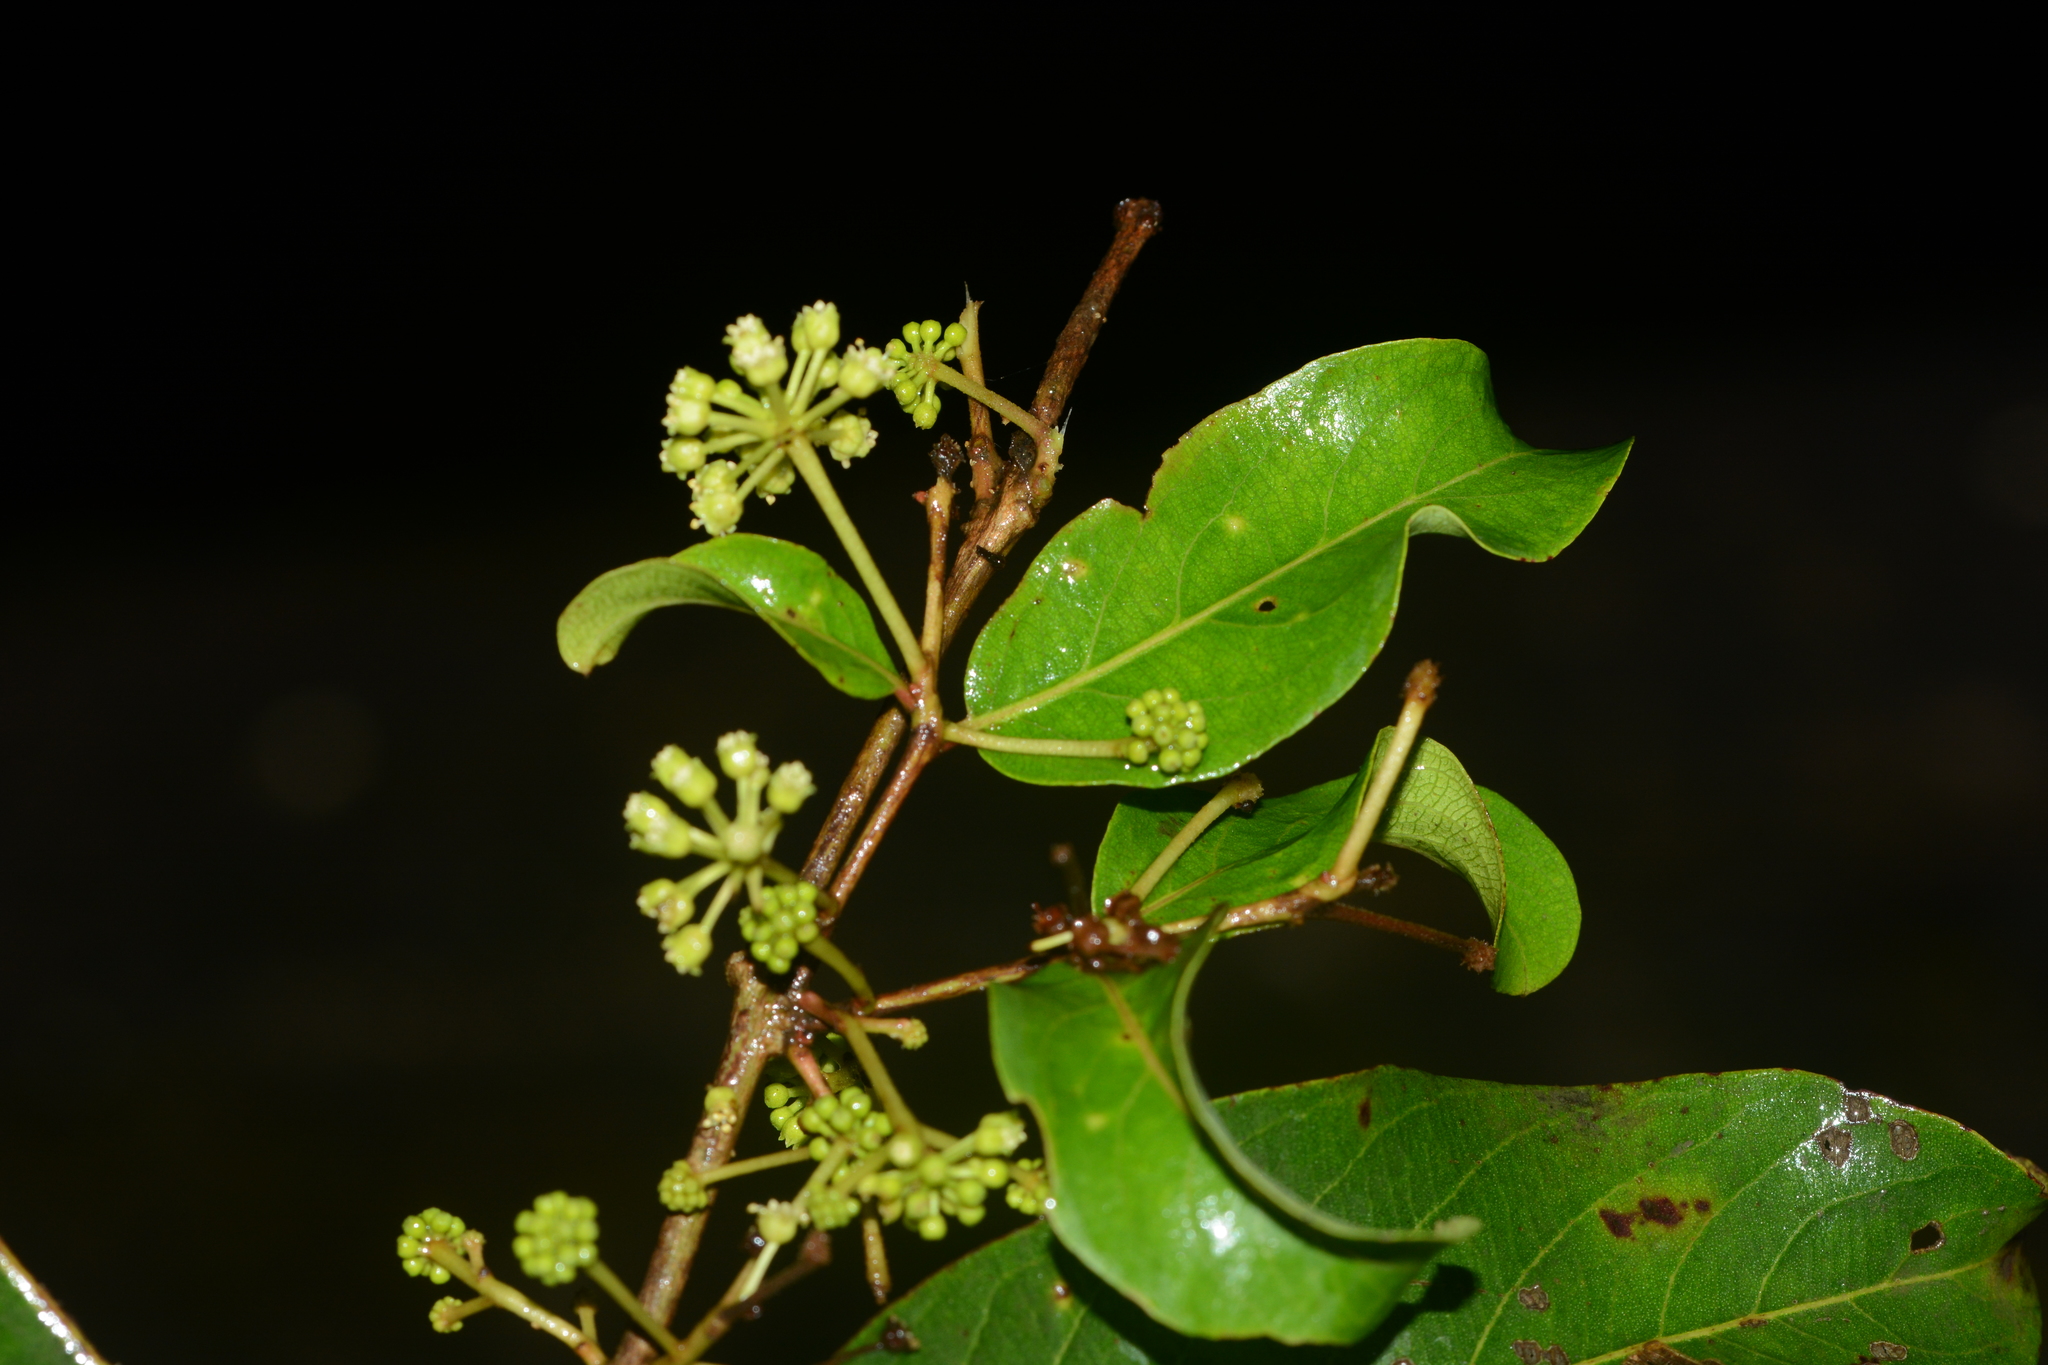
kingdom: Plantae
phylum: Tracheophyta
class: Magnoliopsida
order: Myrtales
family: Combretaceae
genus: Terminalia
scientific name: Terminalia latifolia
